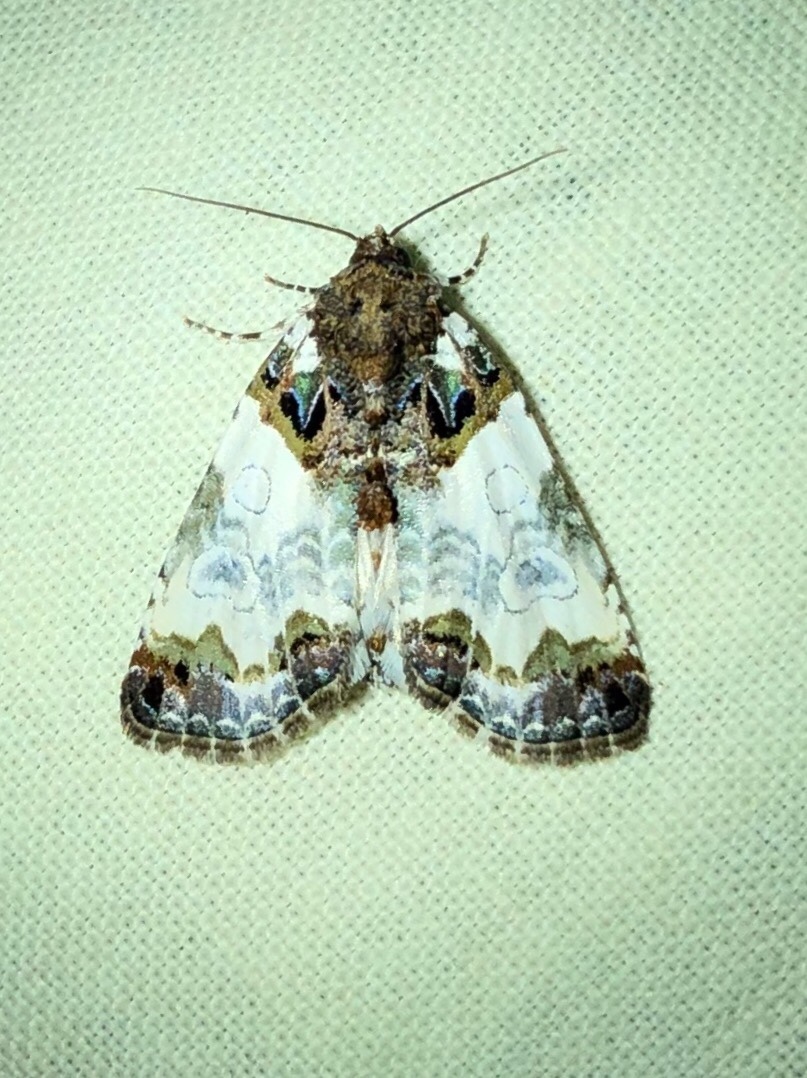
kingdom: Animalia
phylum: Arthropoda
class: Insecta
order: Lepidoptera
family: Noctuidae
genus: Cerma
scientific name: Cerma cerintha
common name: Tufted bird-dropping moth
